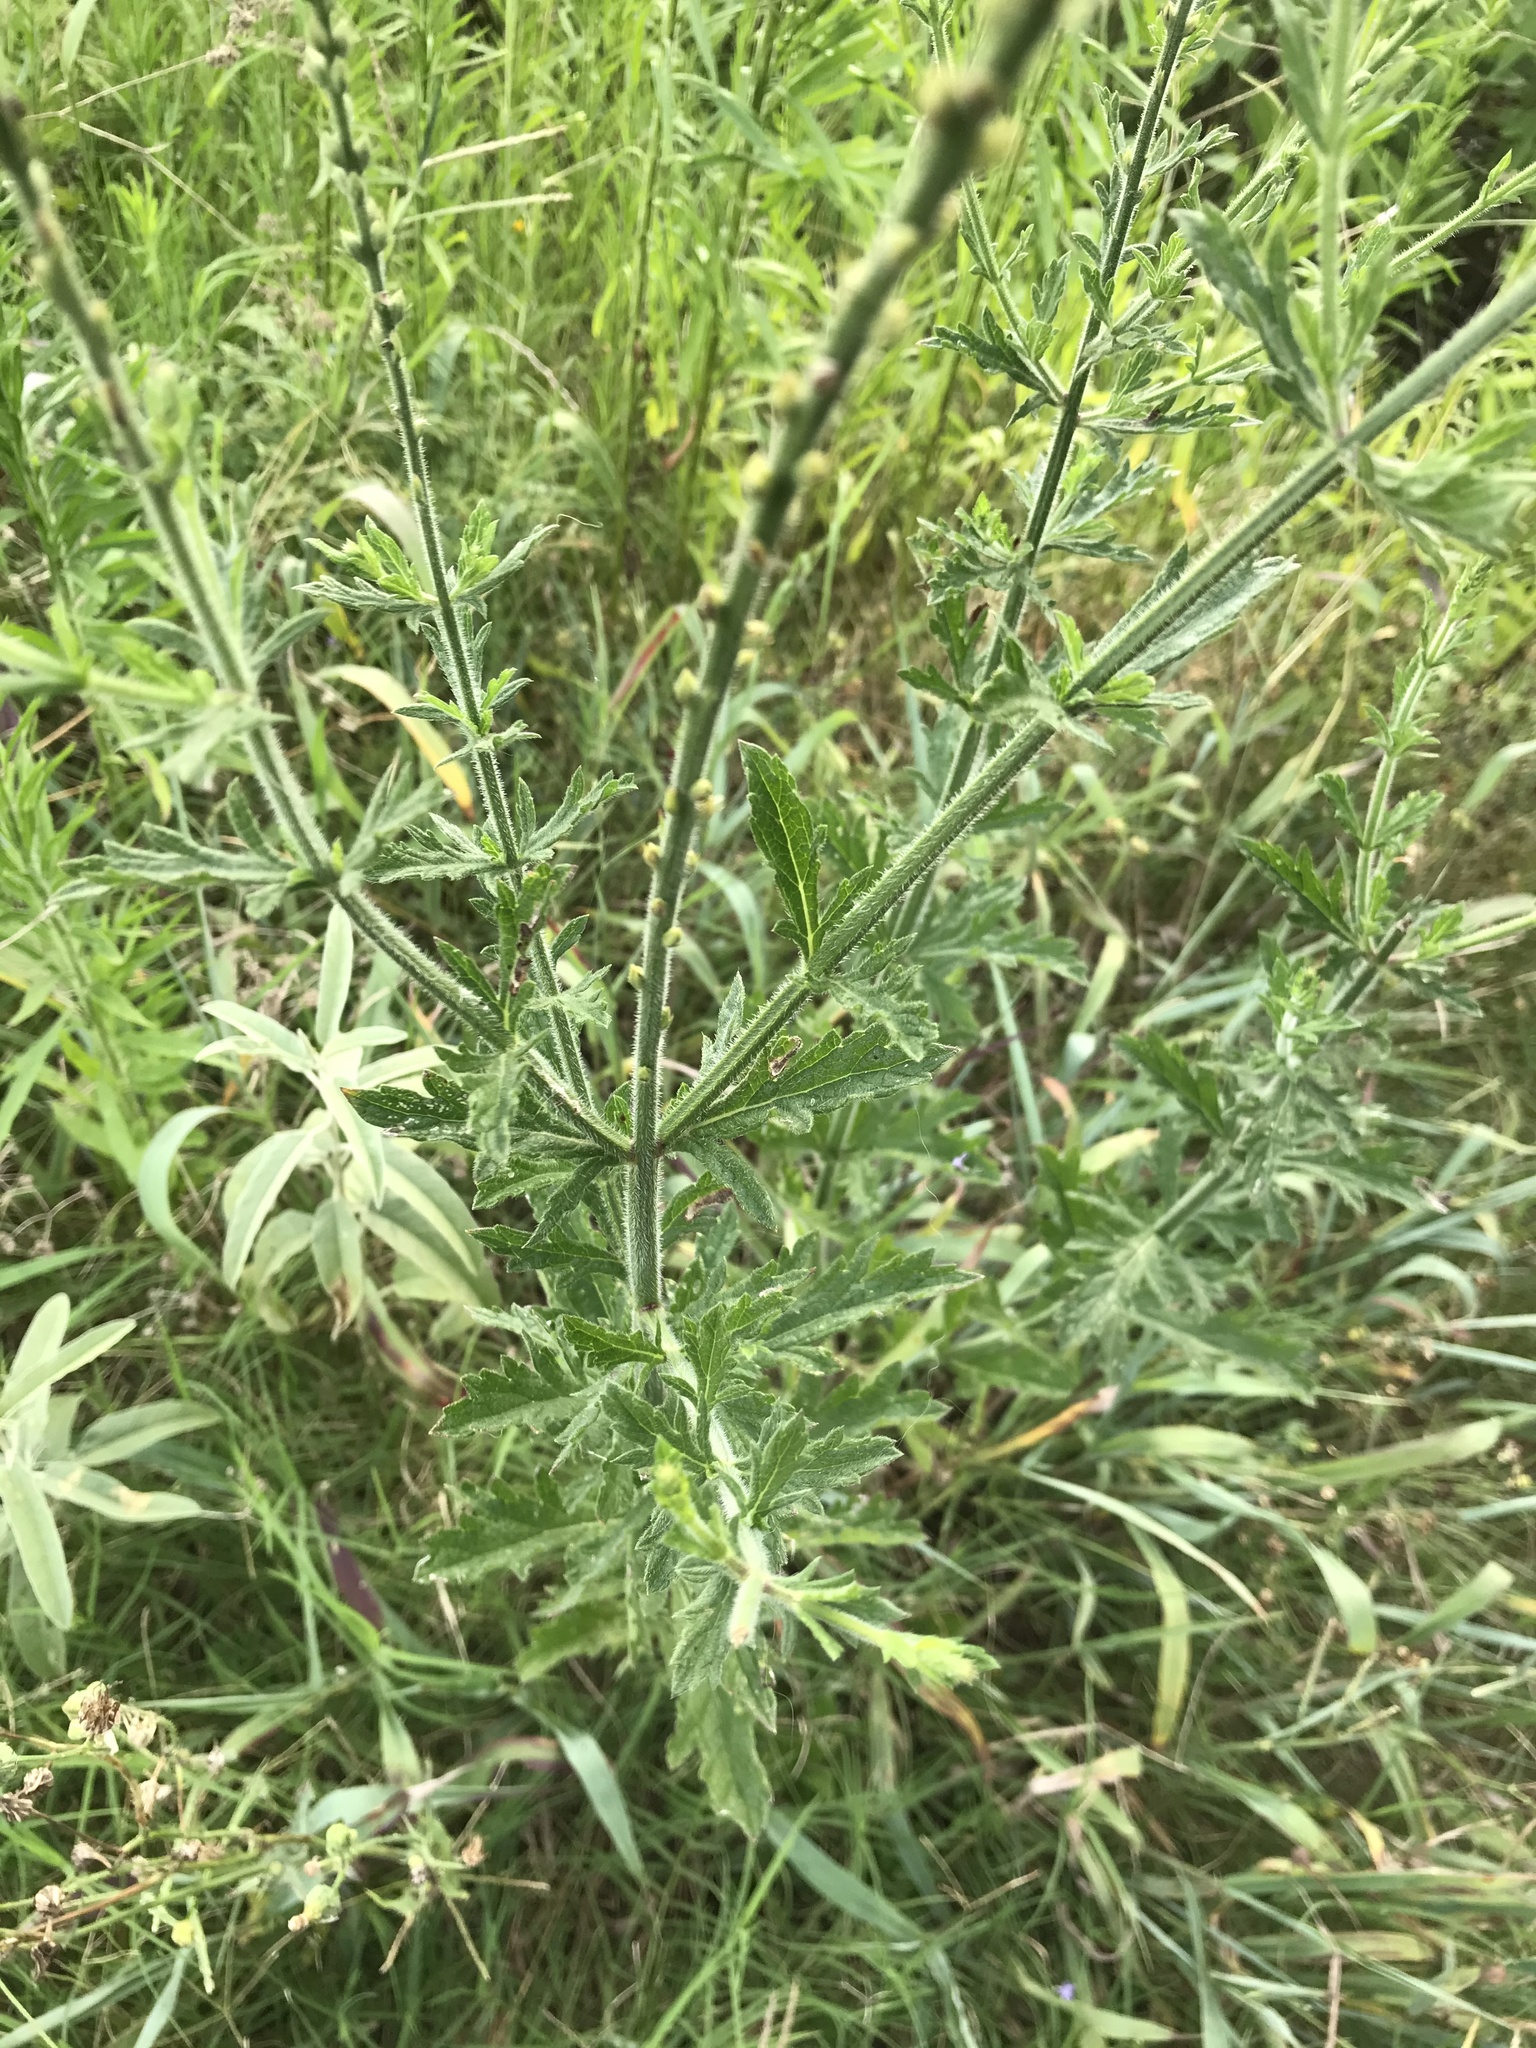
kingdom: Plantae
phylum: Tracheophyta
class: Magnoliopsida
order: Lamiales
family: Verbenaceae
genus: Verbena
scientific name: Verbena xutha
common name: Gulf vervain
